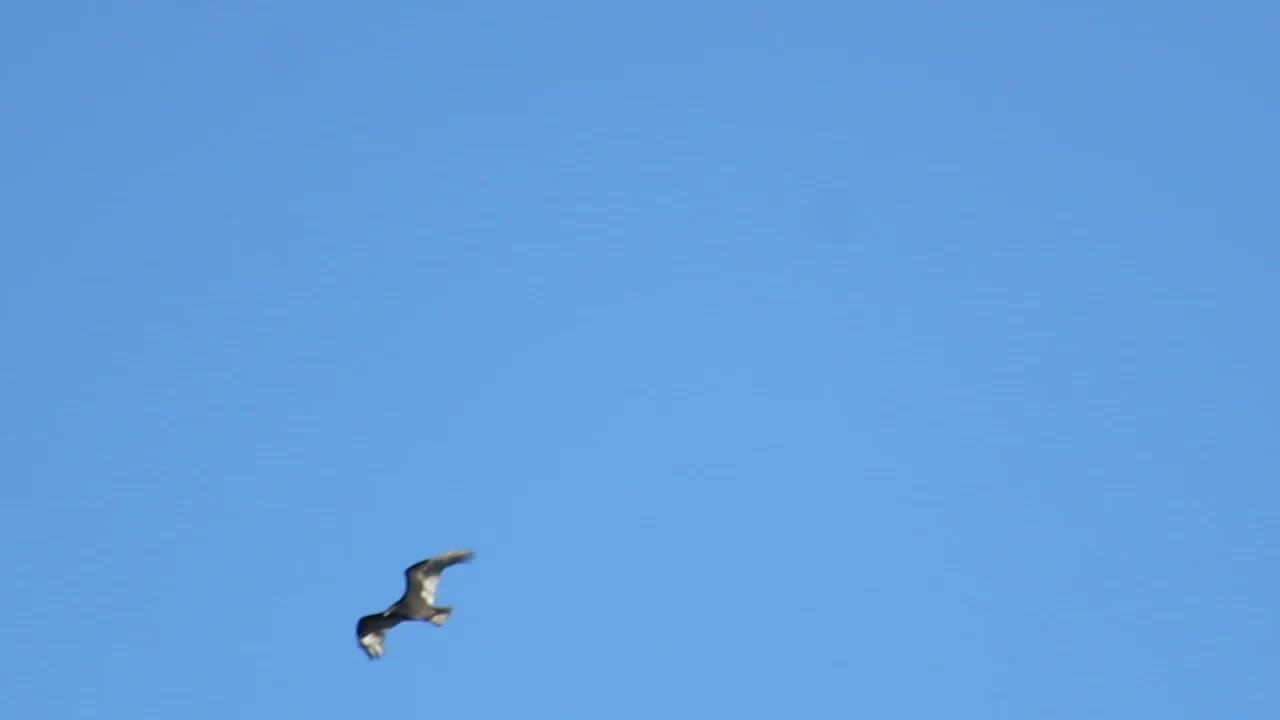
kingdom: Animalia
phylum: Chordata
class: Aves
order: Accipitriformes
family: Cathartidae
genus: Cathartes
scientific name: Cathartes aura
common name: Turkey vulture
